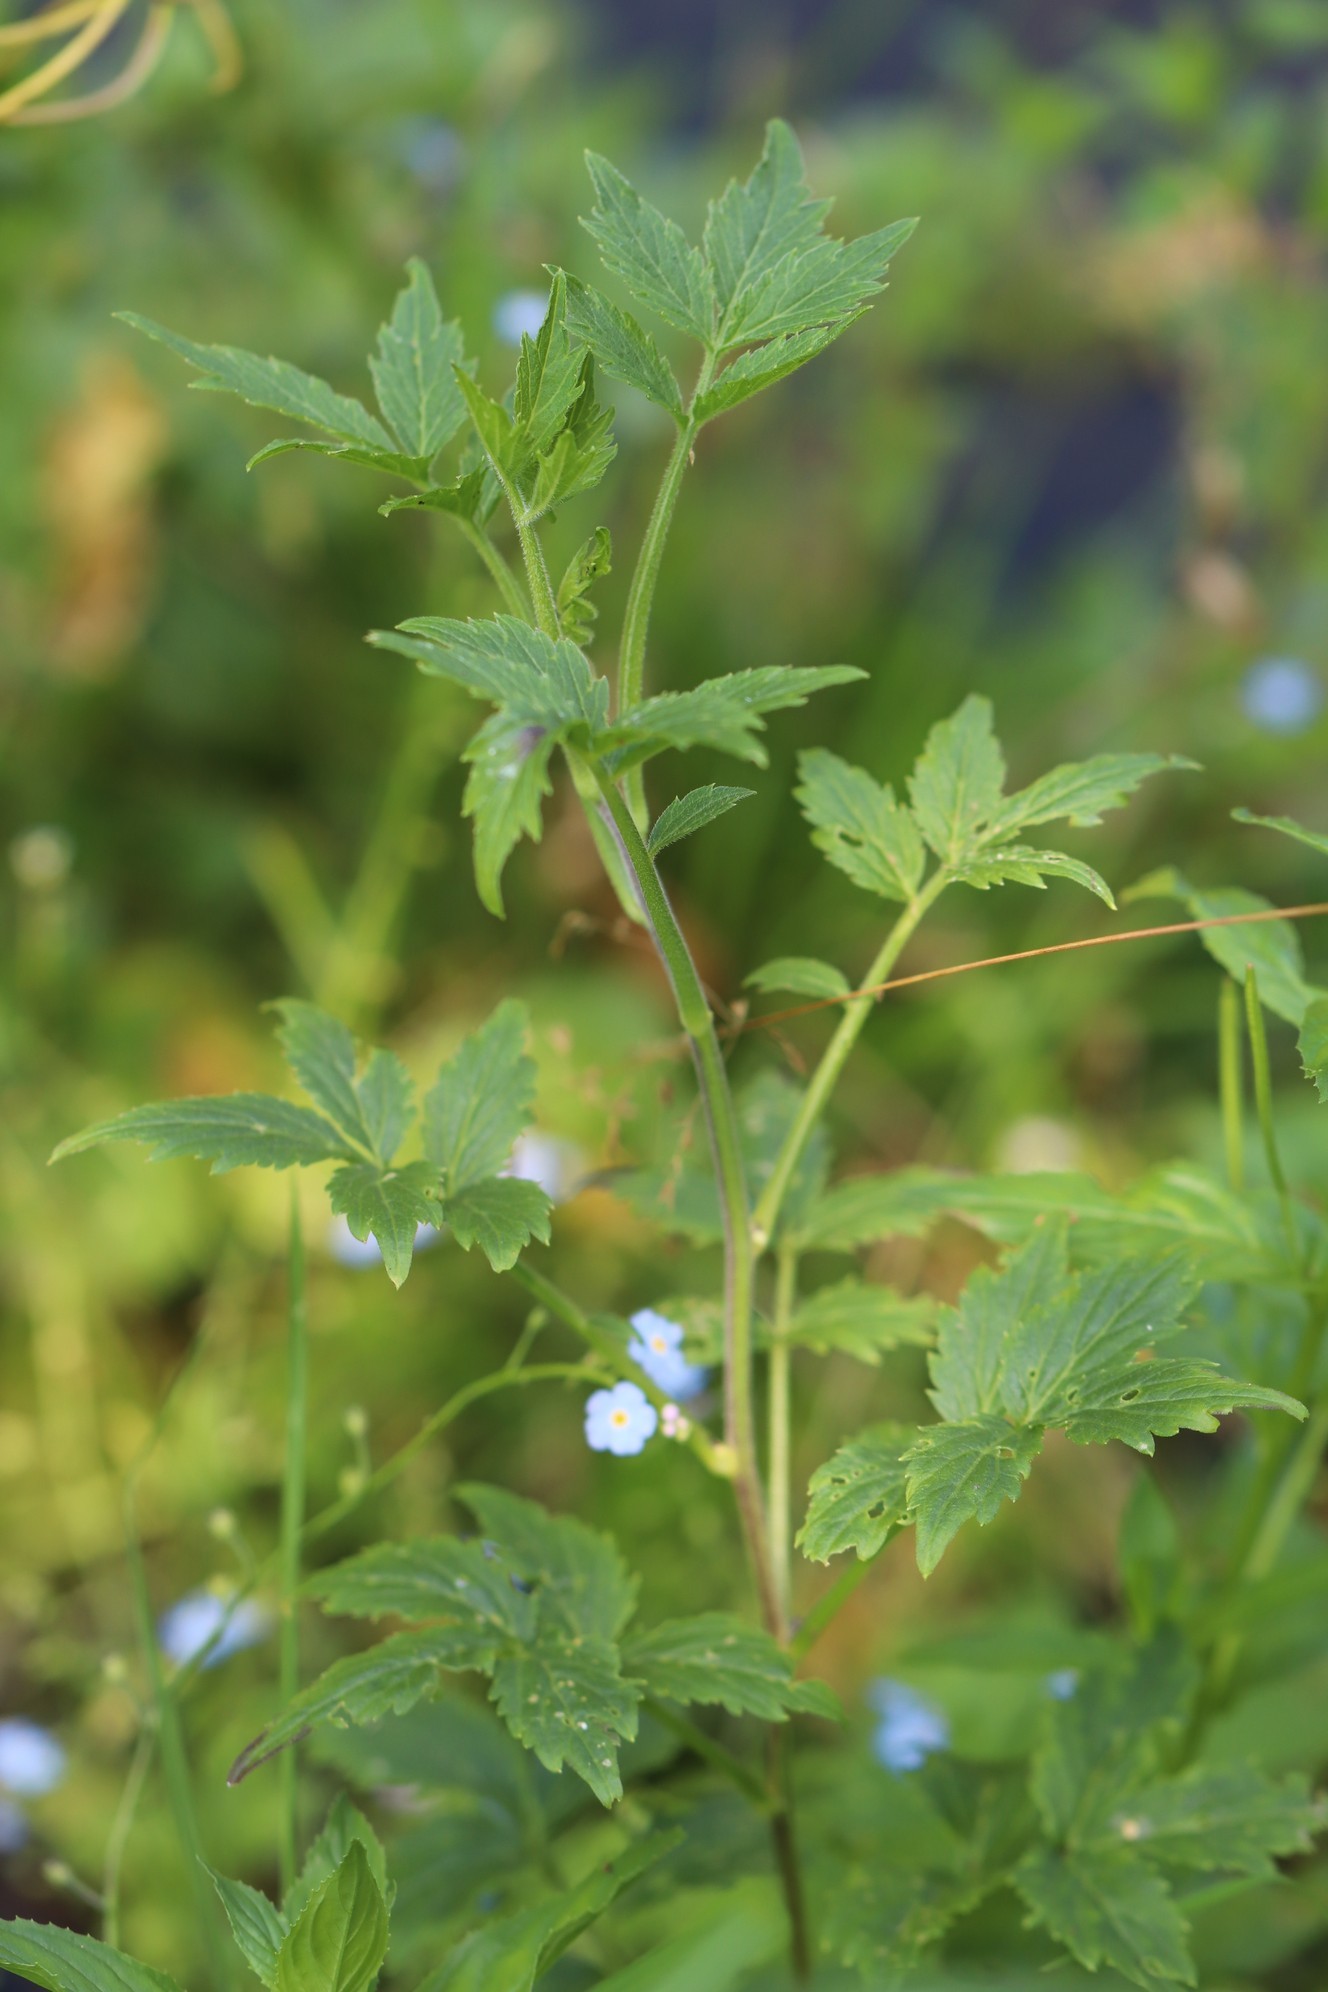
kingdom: Plantae
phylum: Tracheophyta
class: Magnoliopsida
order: Brassicales
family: Brassicaceae
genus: Cardamine
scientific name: Cardamine macrophylla
